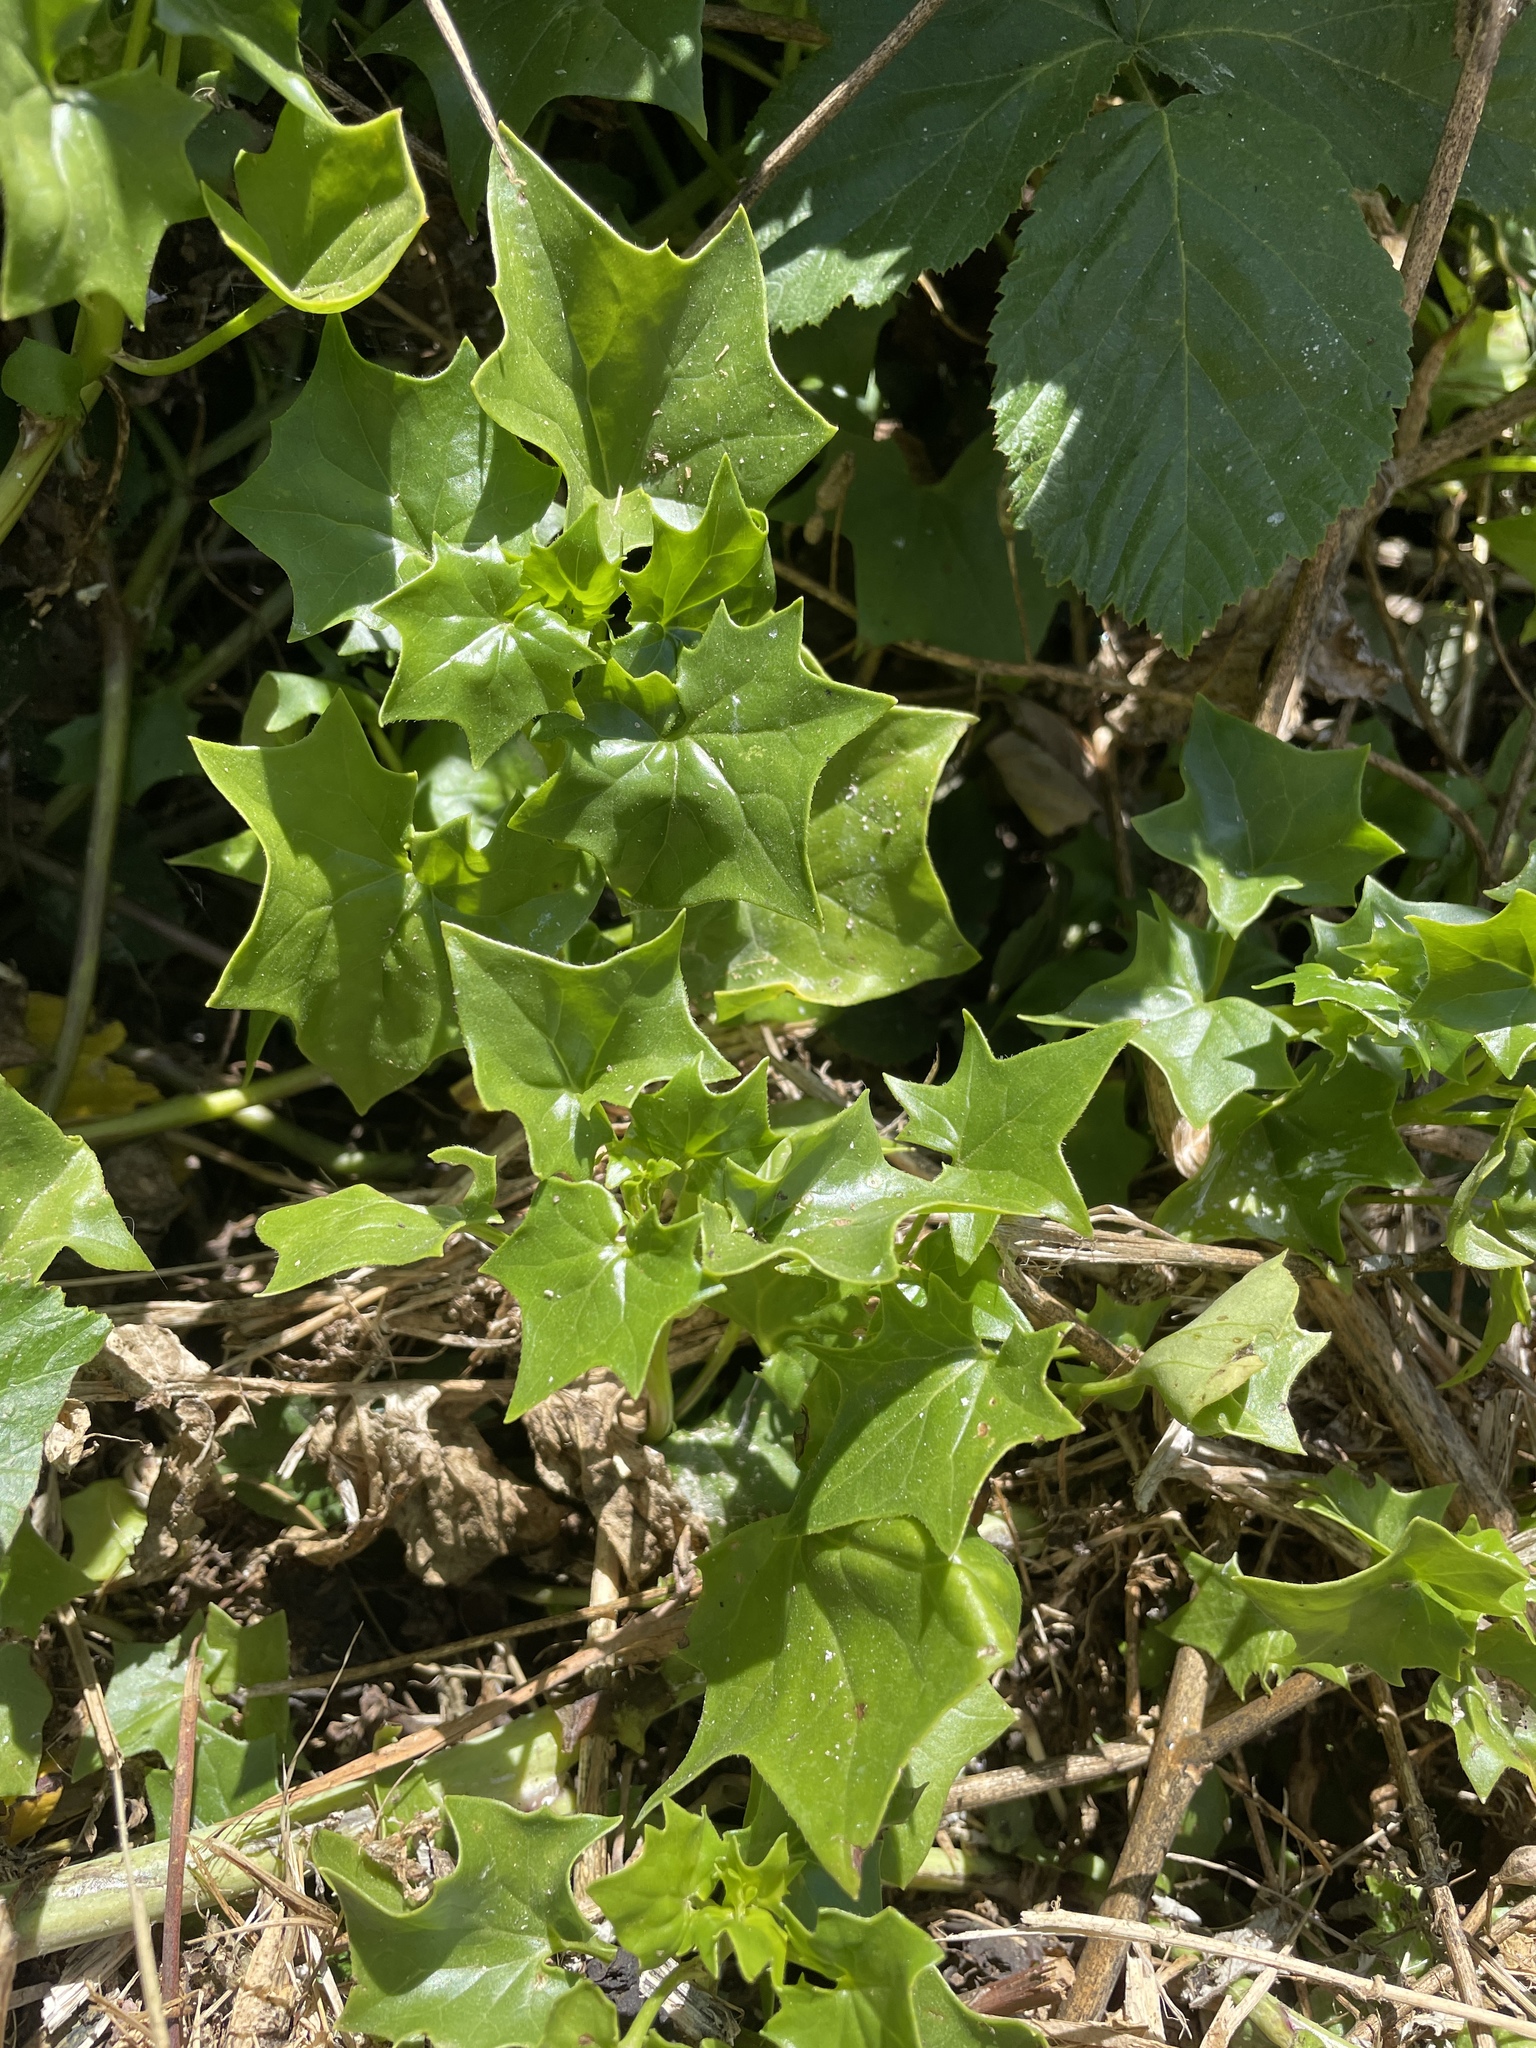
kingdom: Plantae
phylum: Tracheophyta
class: Magnoliopsida
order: Asterales
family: Asteraceae
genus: Delairea
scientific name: Delairea odorata
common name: Cape-ivy
